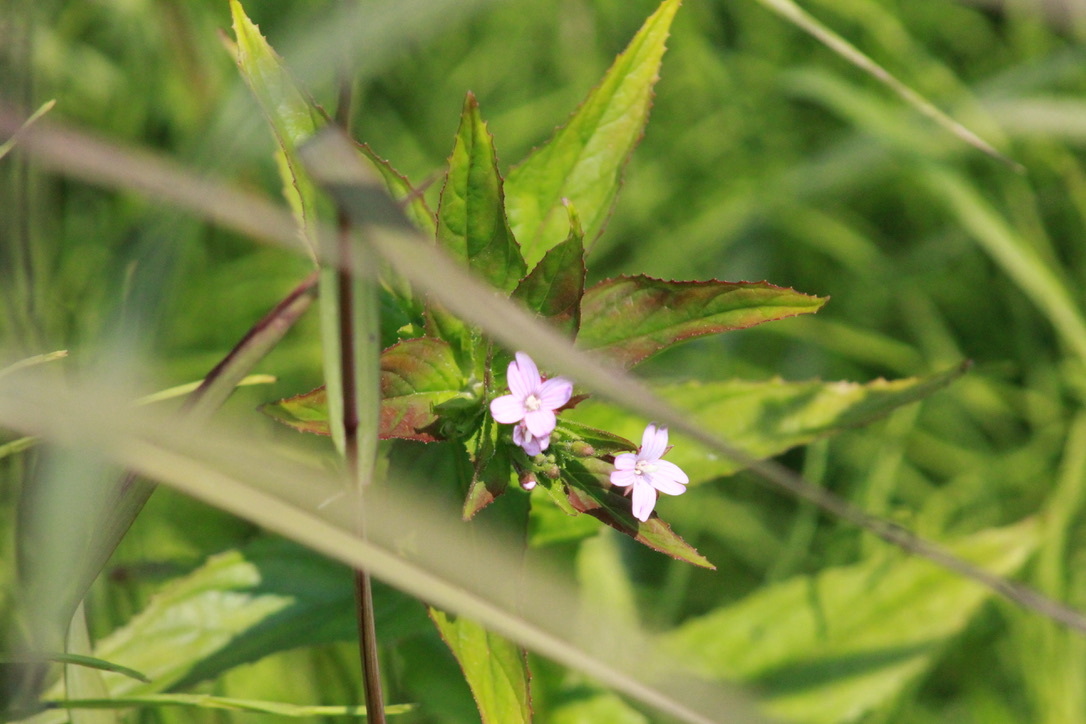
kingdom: Plantae
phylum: Tracheophyta
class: Magnoliopsida
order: Myrtales
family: Onagraceae
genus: Epilobium
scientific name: Epilobium ciliatum
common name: American willowherb
